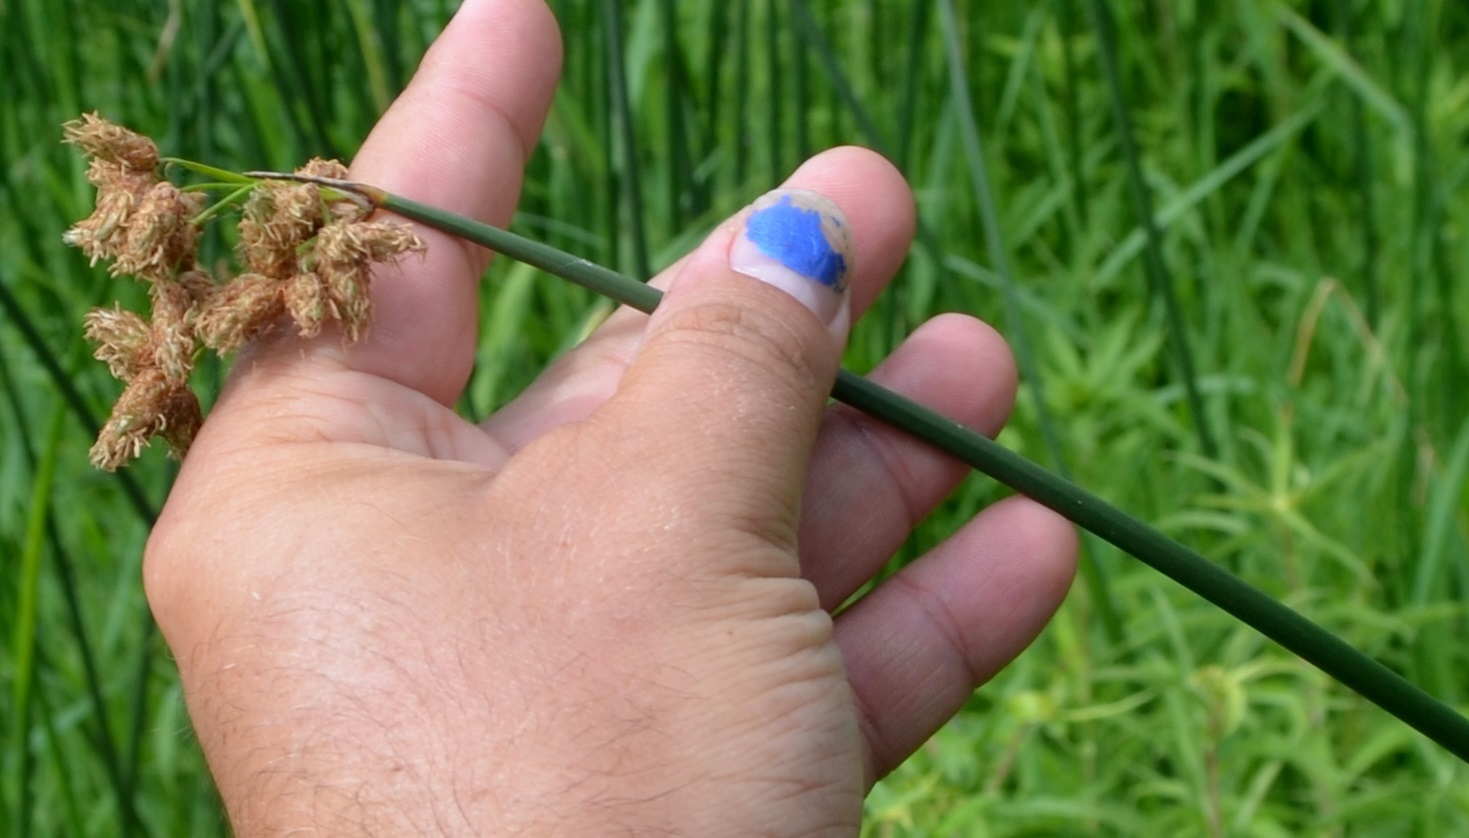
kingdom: Plantae
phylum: Tracheophyta
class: Liliopsida
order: Poales
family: Cyperaceae
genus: Schoenoplectus
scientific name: Schoenoplectus tabernaemontani
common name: Grey club-rush
